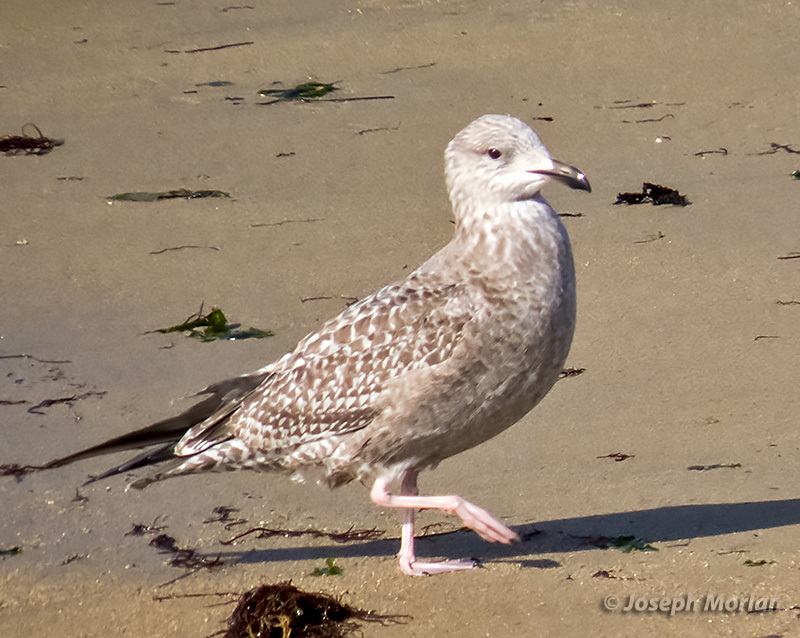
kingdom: Animalia
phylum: Chordata
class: Aves
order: Charadriiformes
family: Laridae
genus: Larus
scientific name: Larus glaucoides
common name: Iceland gull
